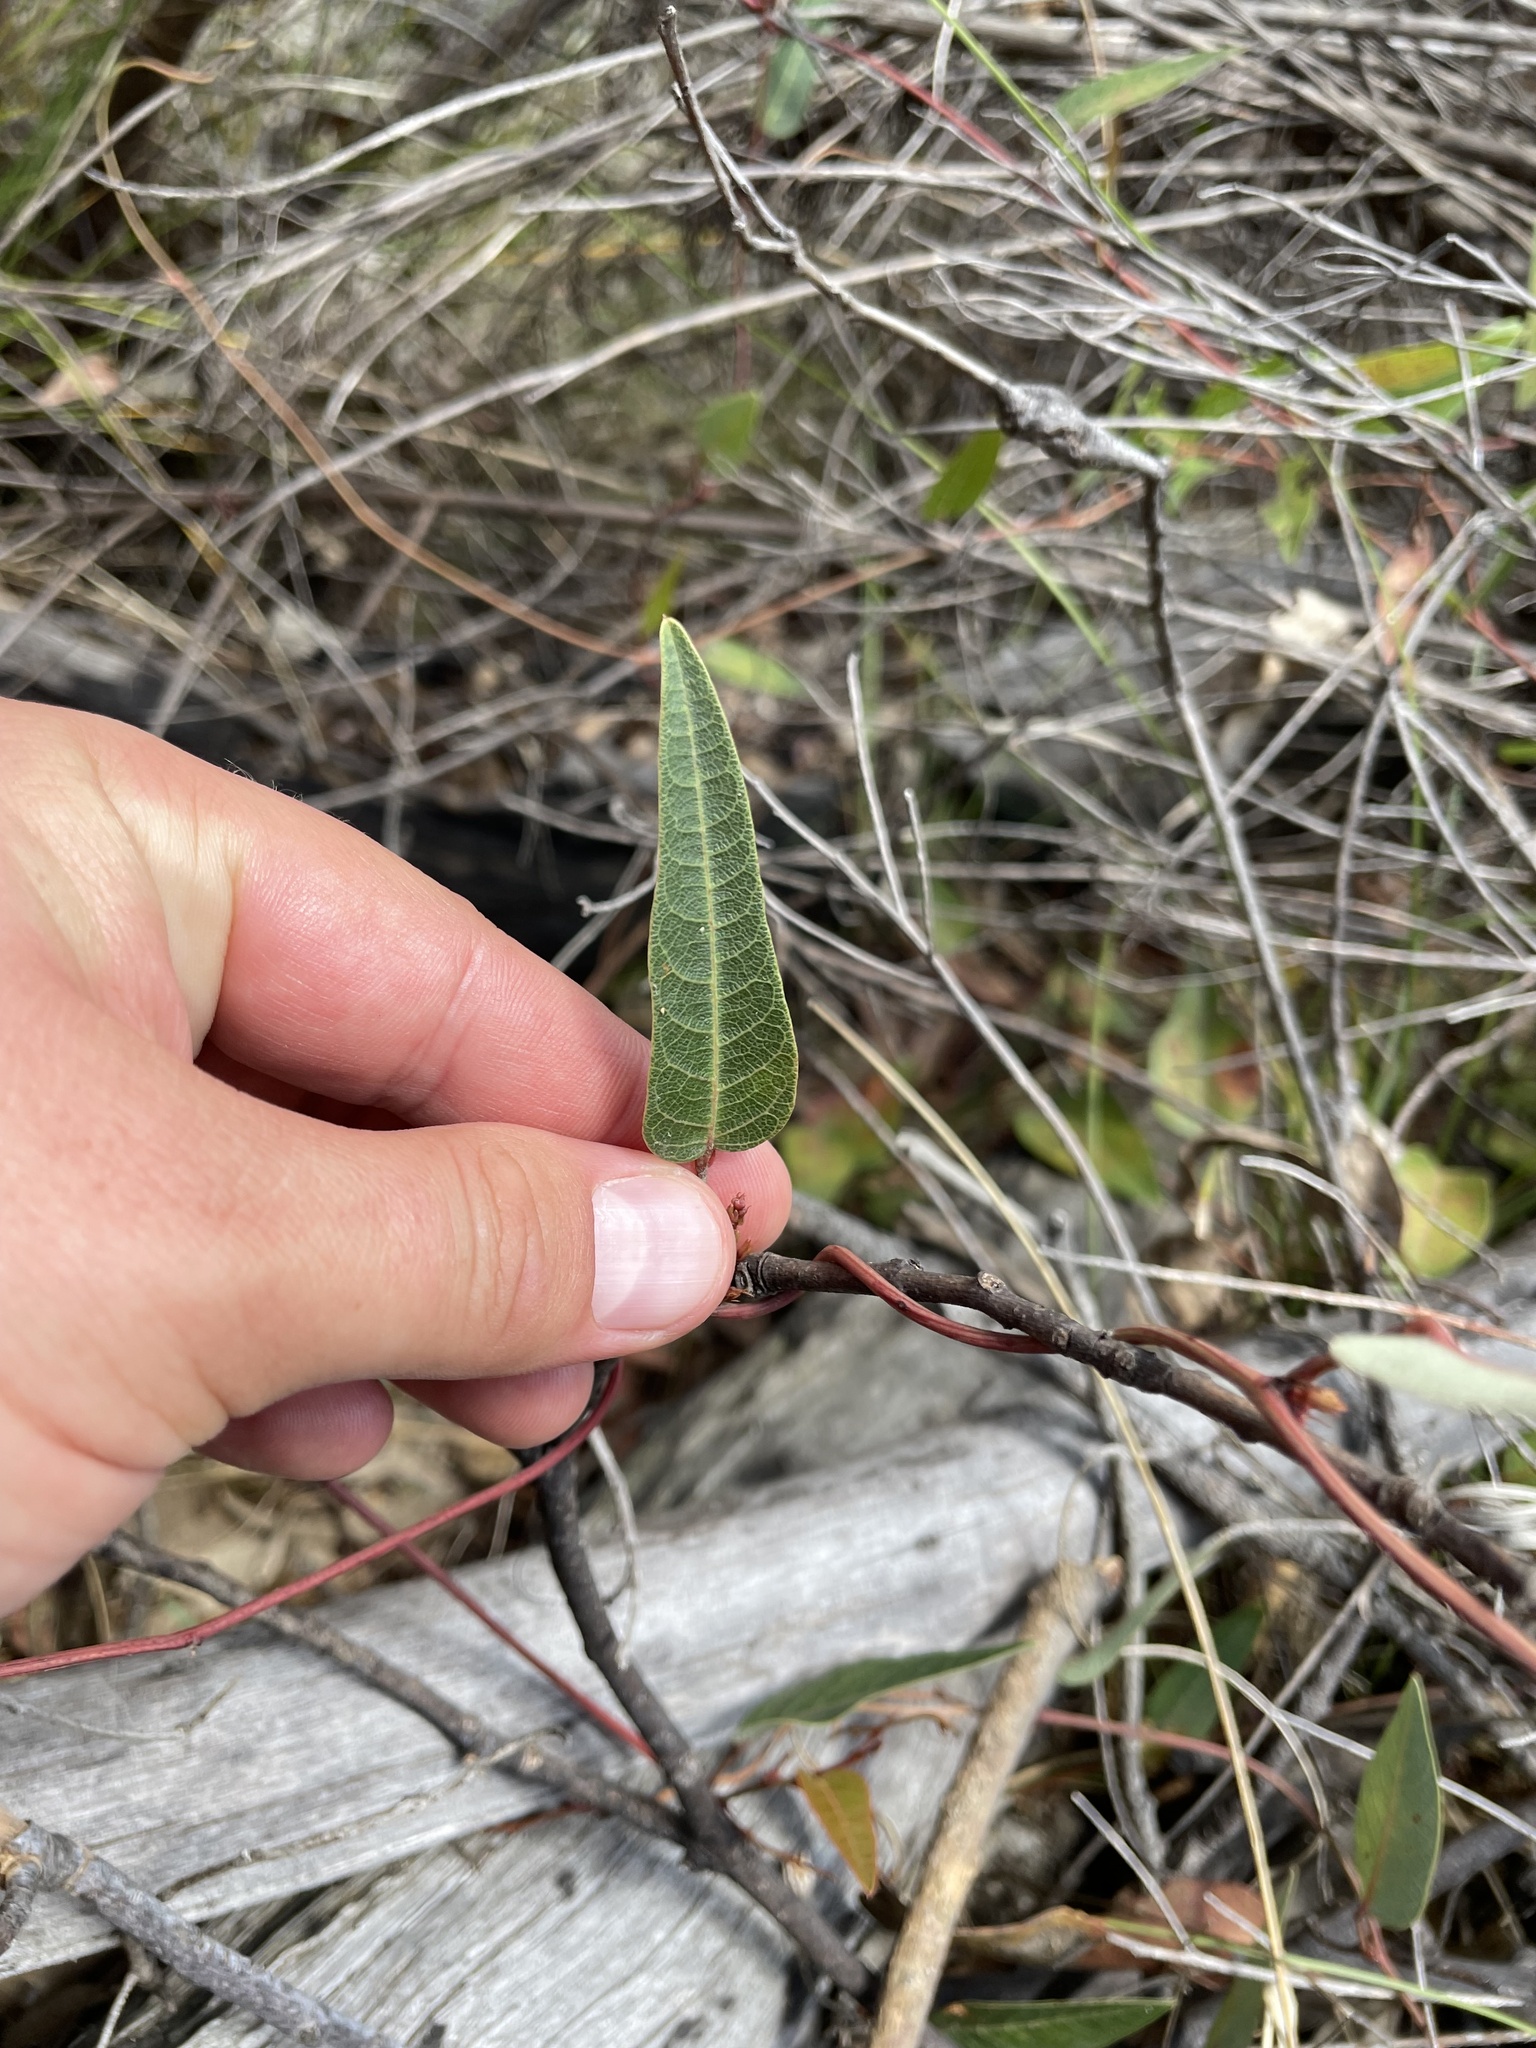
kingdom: Plantae
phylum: Tracheophyta
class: Magnoliopsida
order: Fabales
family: Fabaceae
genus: Hardenbergia
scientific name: Hardenbergia violacea
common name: Coral-pea
